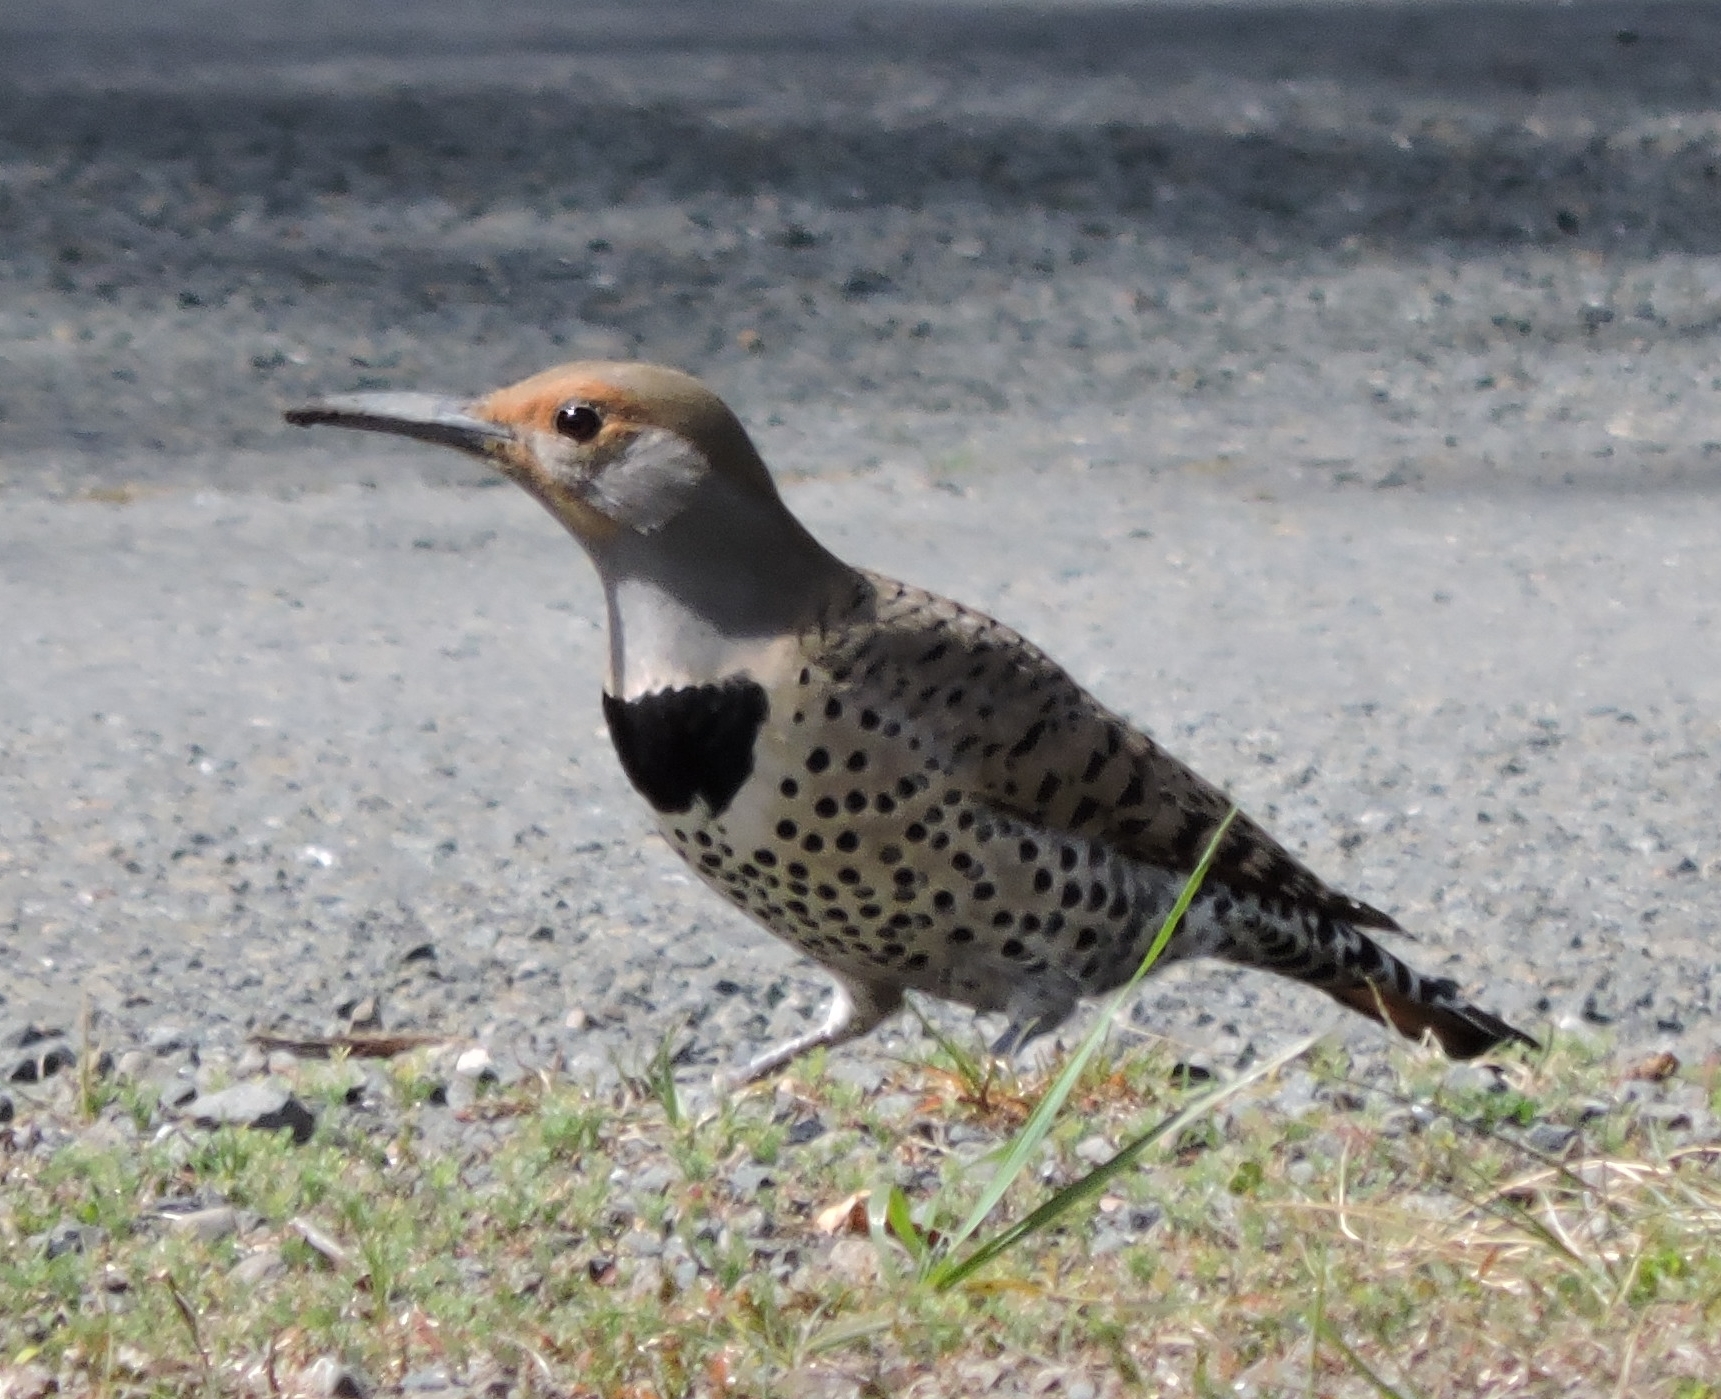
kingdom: Animalia
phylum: Chordata
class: Aves
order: Piciformes
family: Picidae
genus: Colaptes
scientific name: Colaptes auratus
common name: Northern flicker
